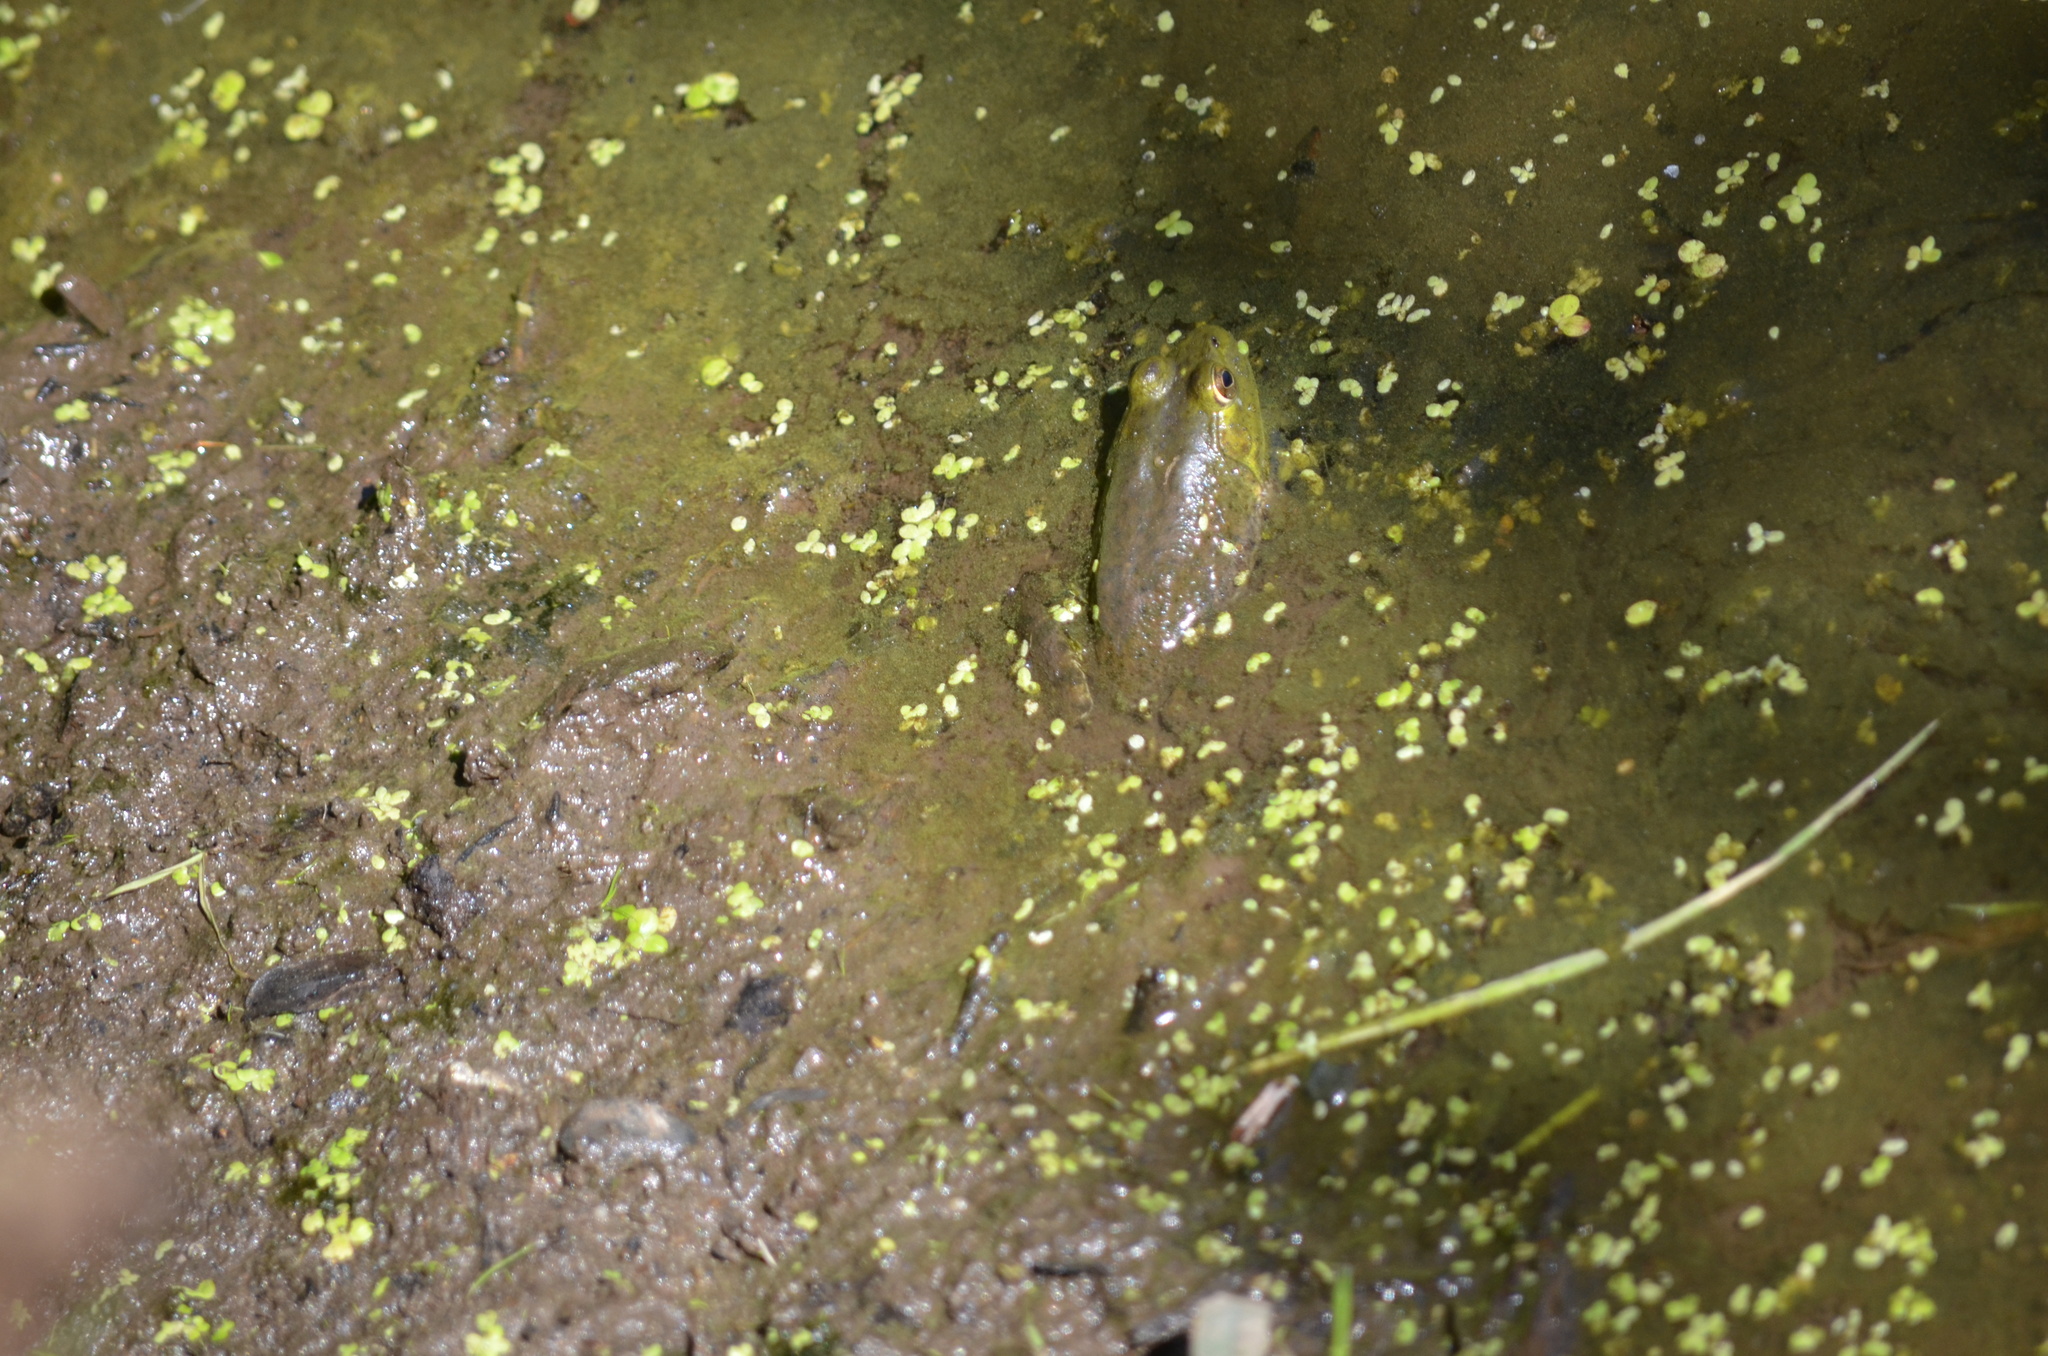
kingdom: Animalia
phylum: Chordata
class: Amphibia
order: Anura
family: Ranidae
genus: Lithobates
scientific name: Lithobates catesbeianus
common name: American bullfrog
